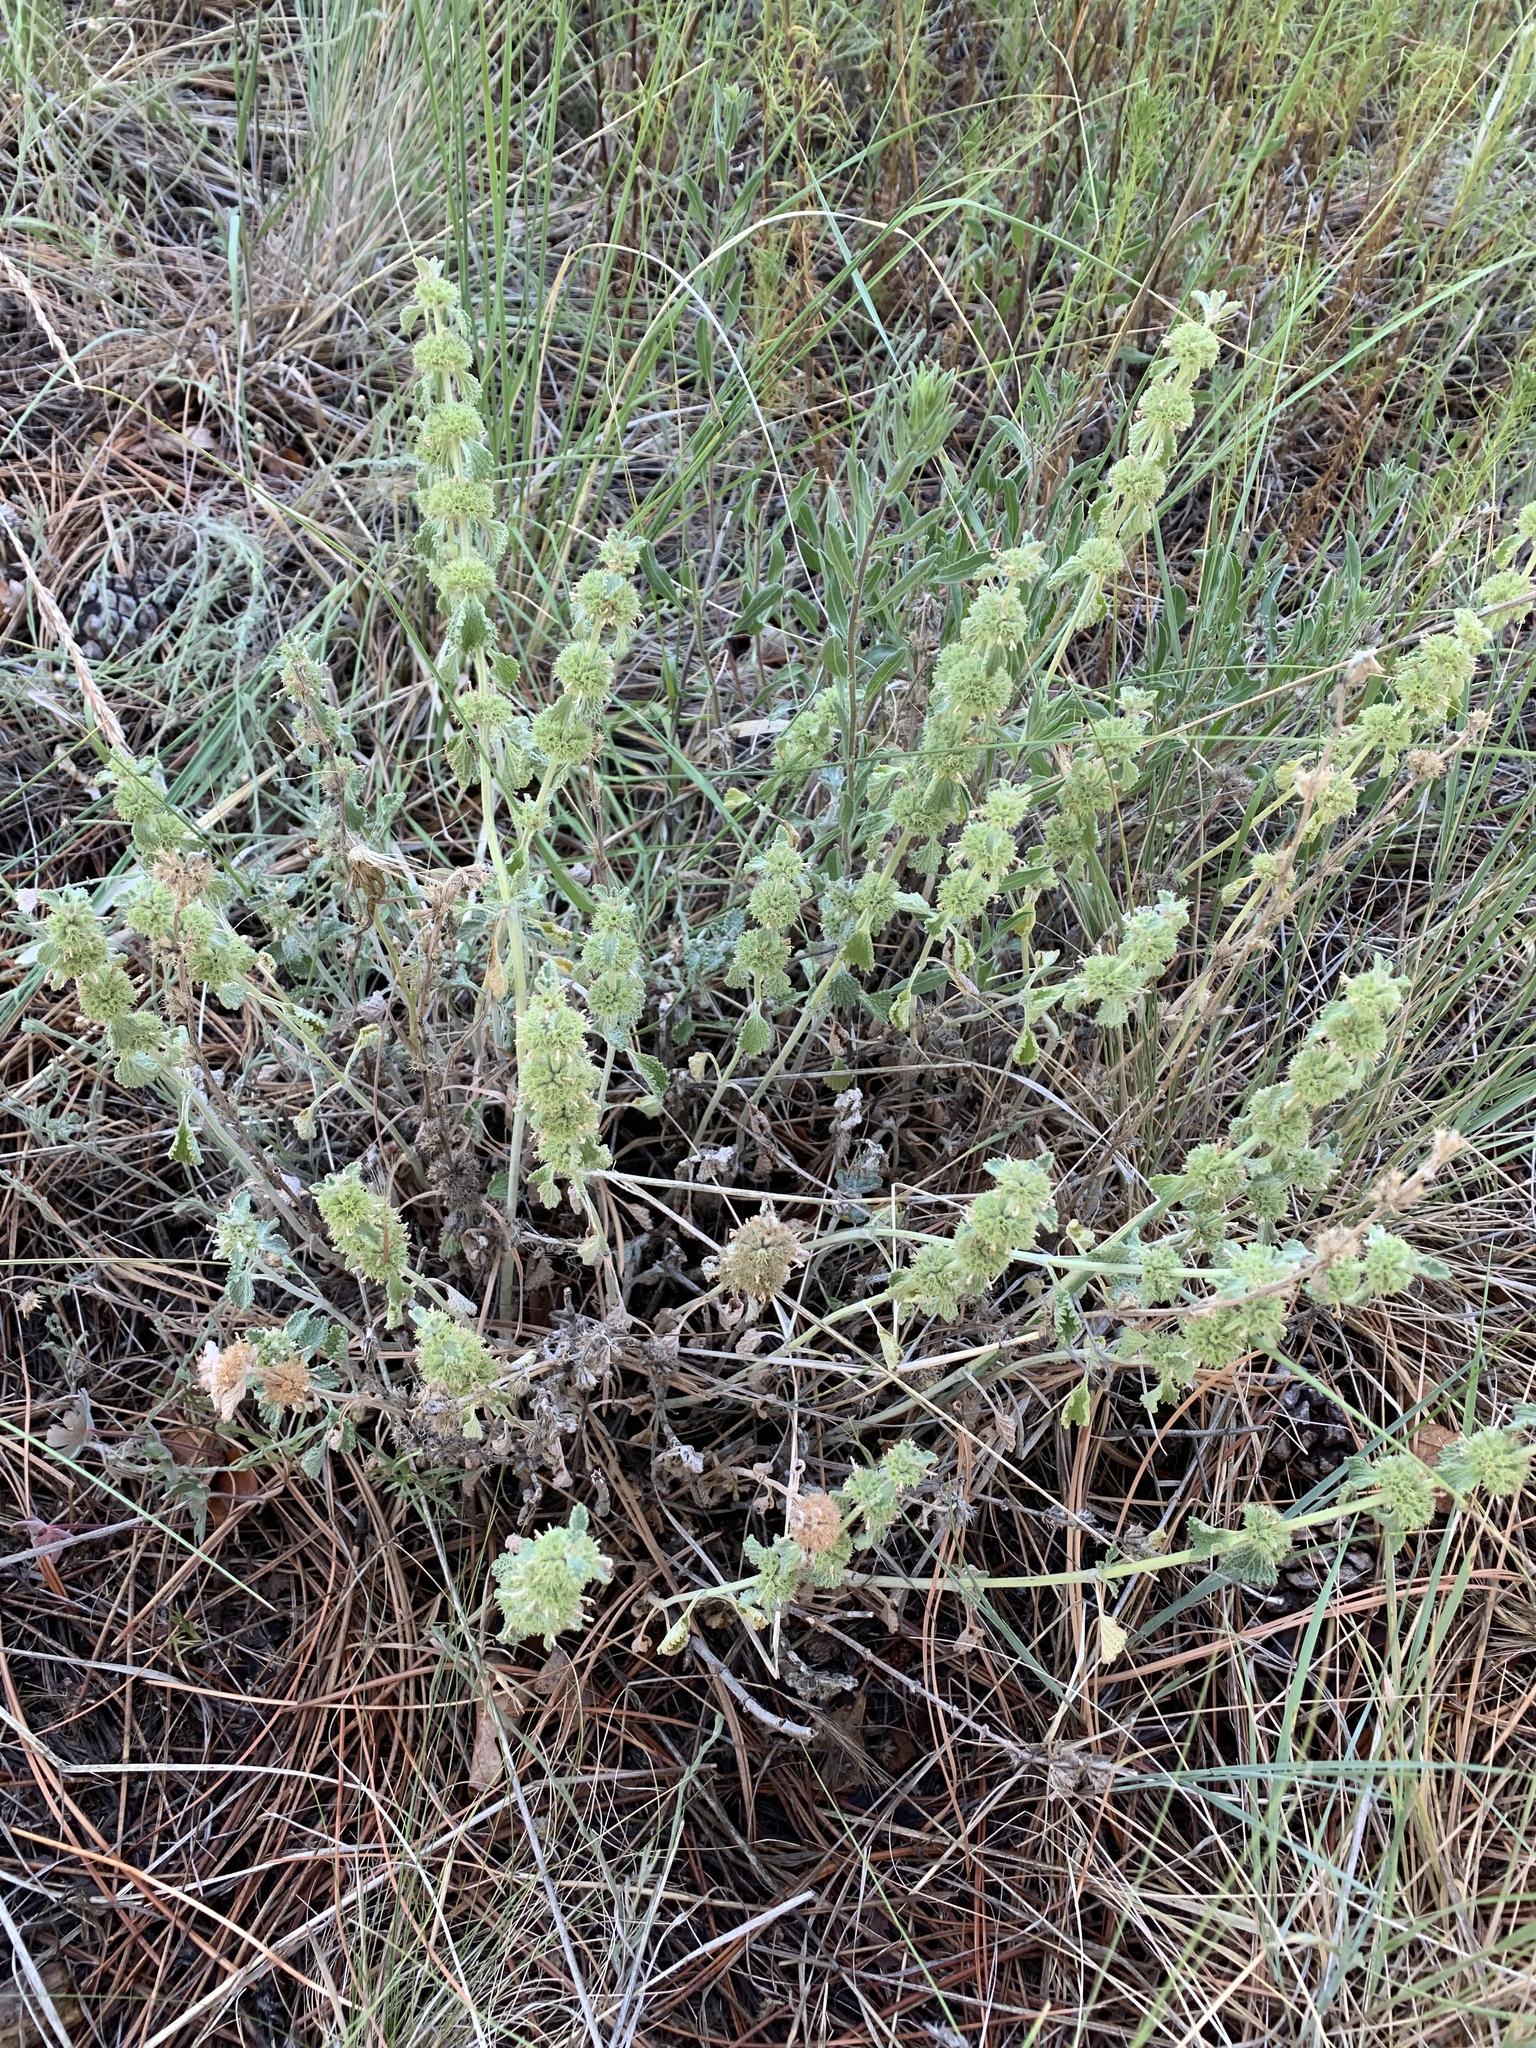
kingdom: Plantae
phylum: Tracheophyta
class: Magnoliopsida
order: Lamiales
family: Lamiaceae
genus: Marrubium
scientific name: Marrubium vulgare
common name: Horehound
